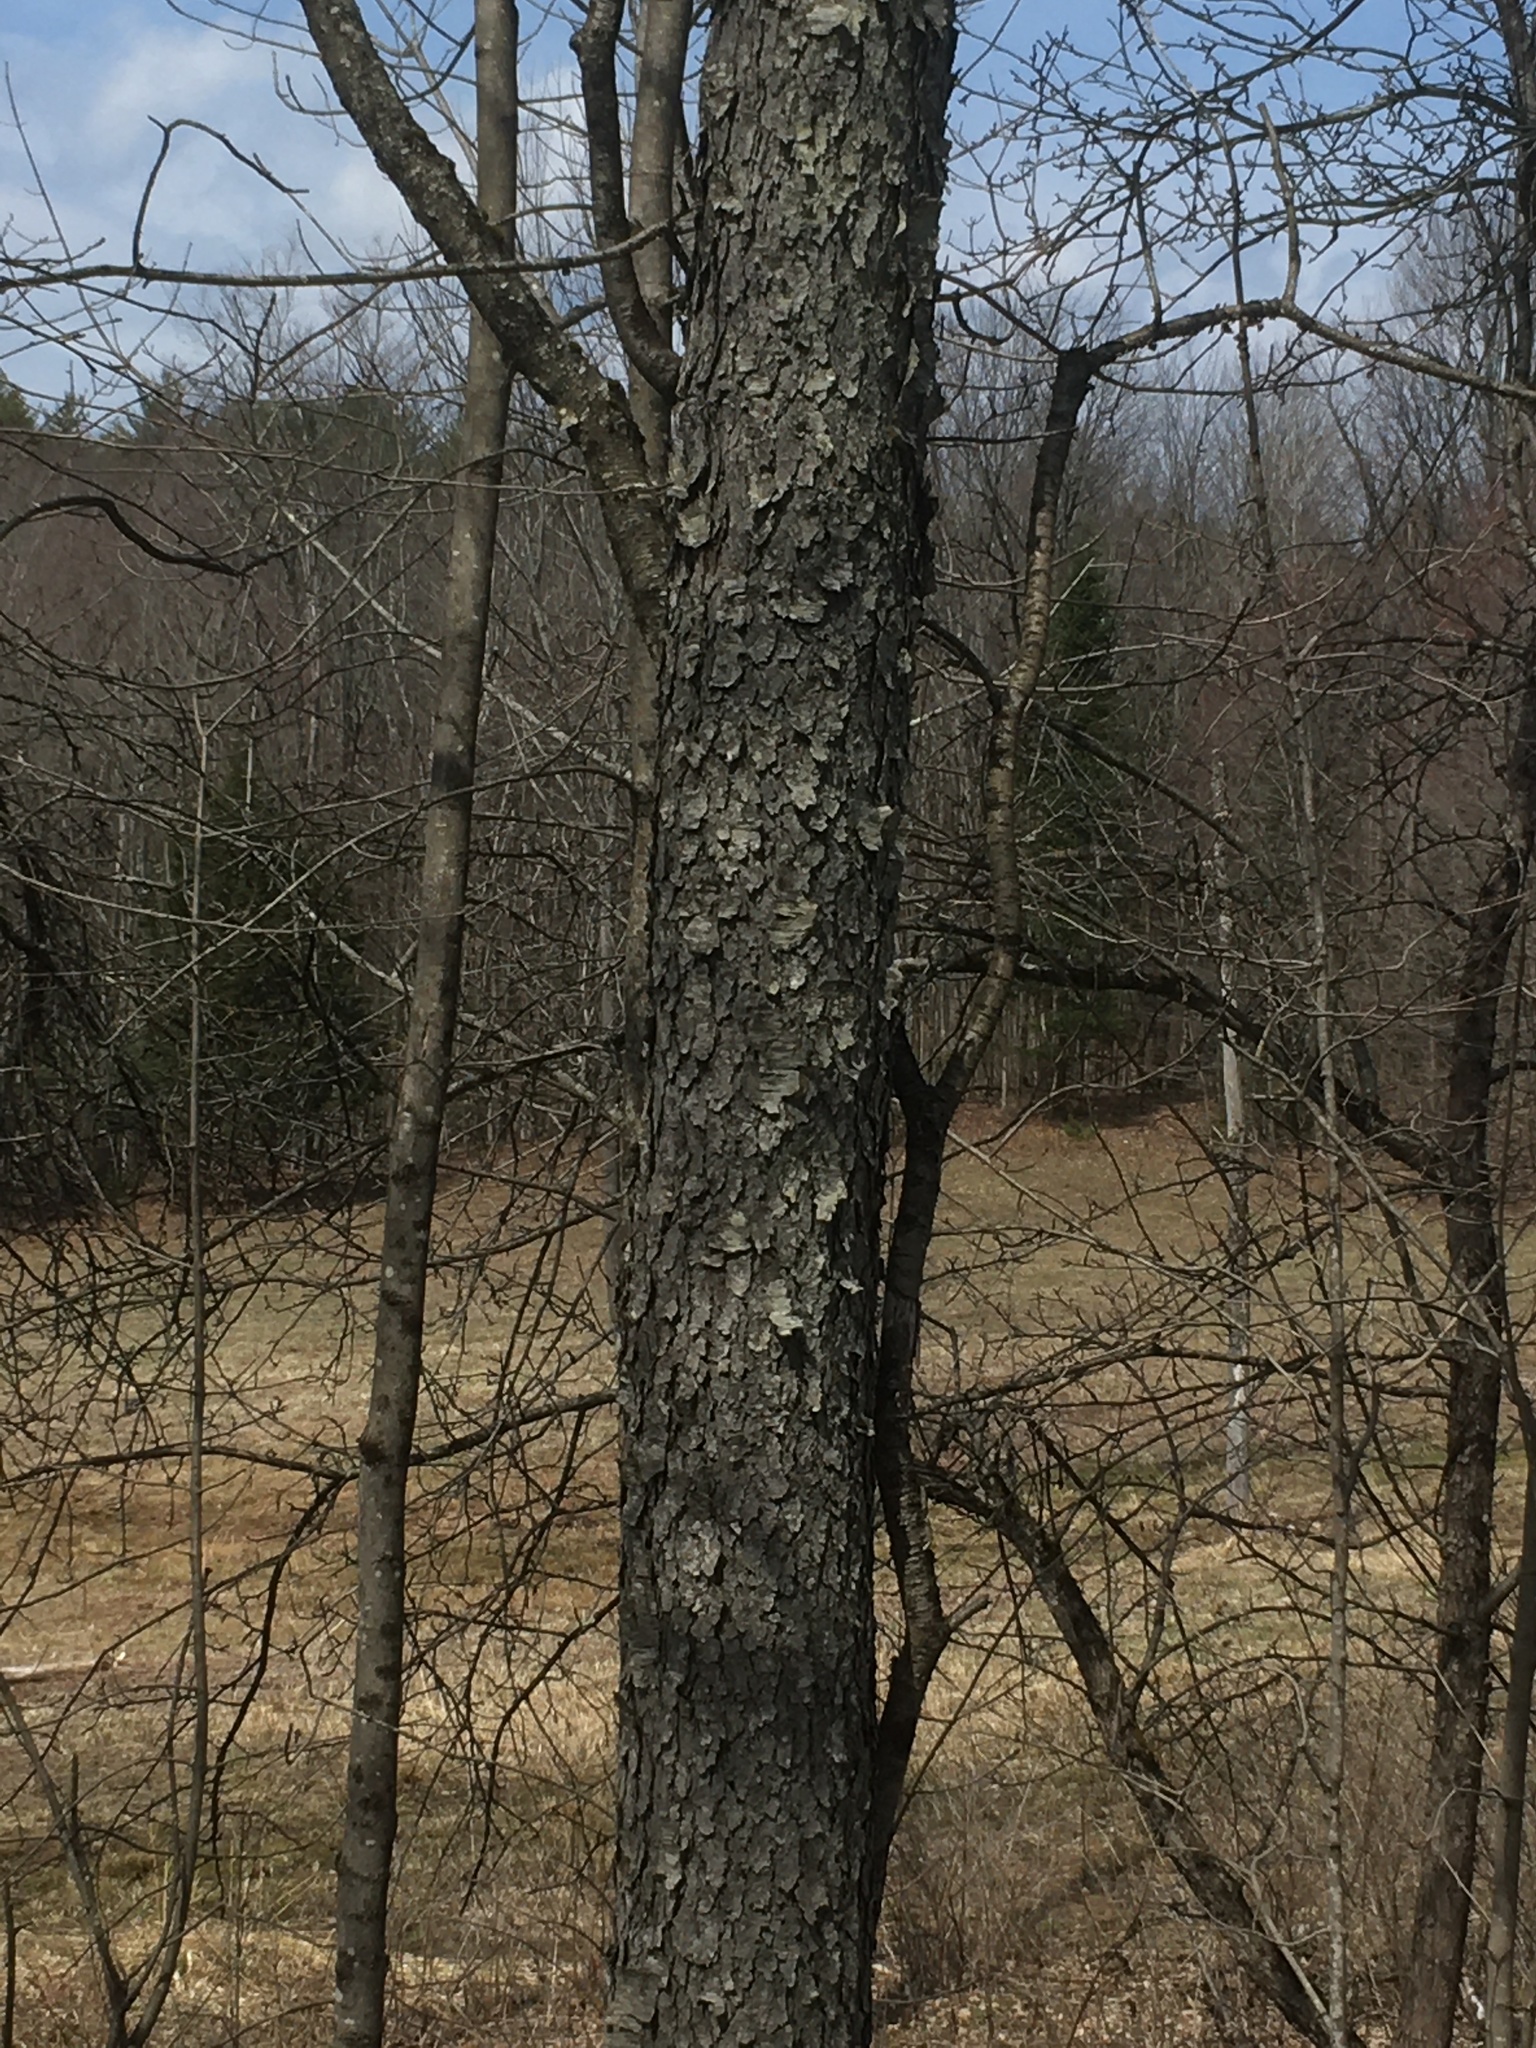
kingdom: Plantae
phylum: Tracheophyta
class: Magnoliopsida
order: Rosales
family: Rosaceae
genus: Prunus
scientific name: Prunus serotina
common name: Black cherry
